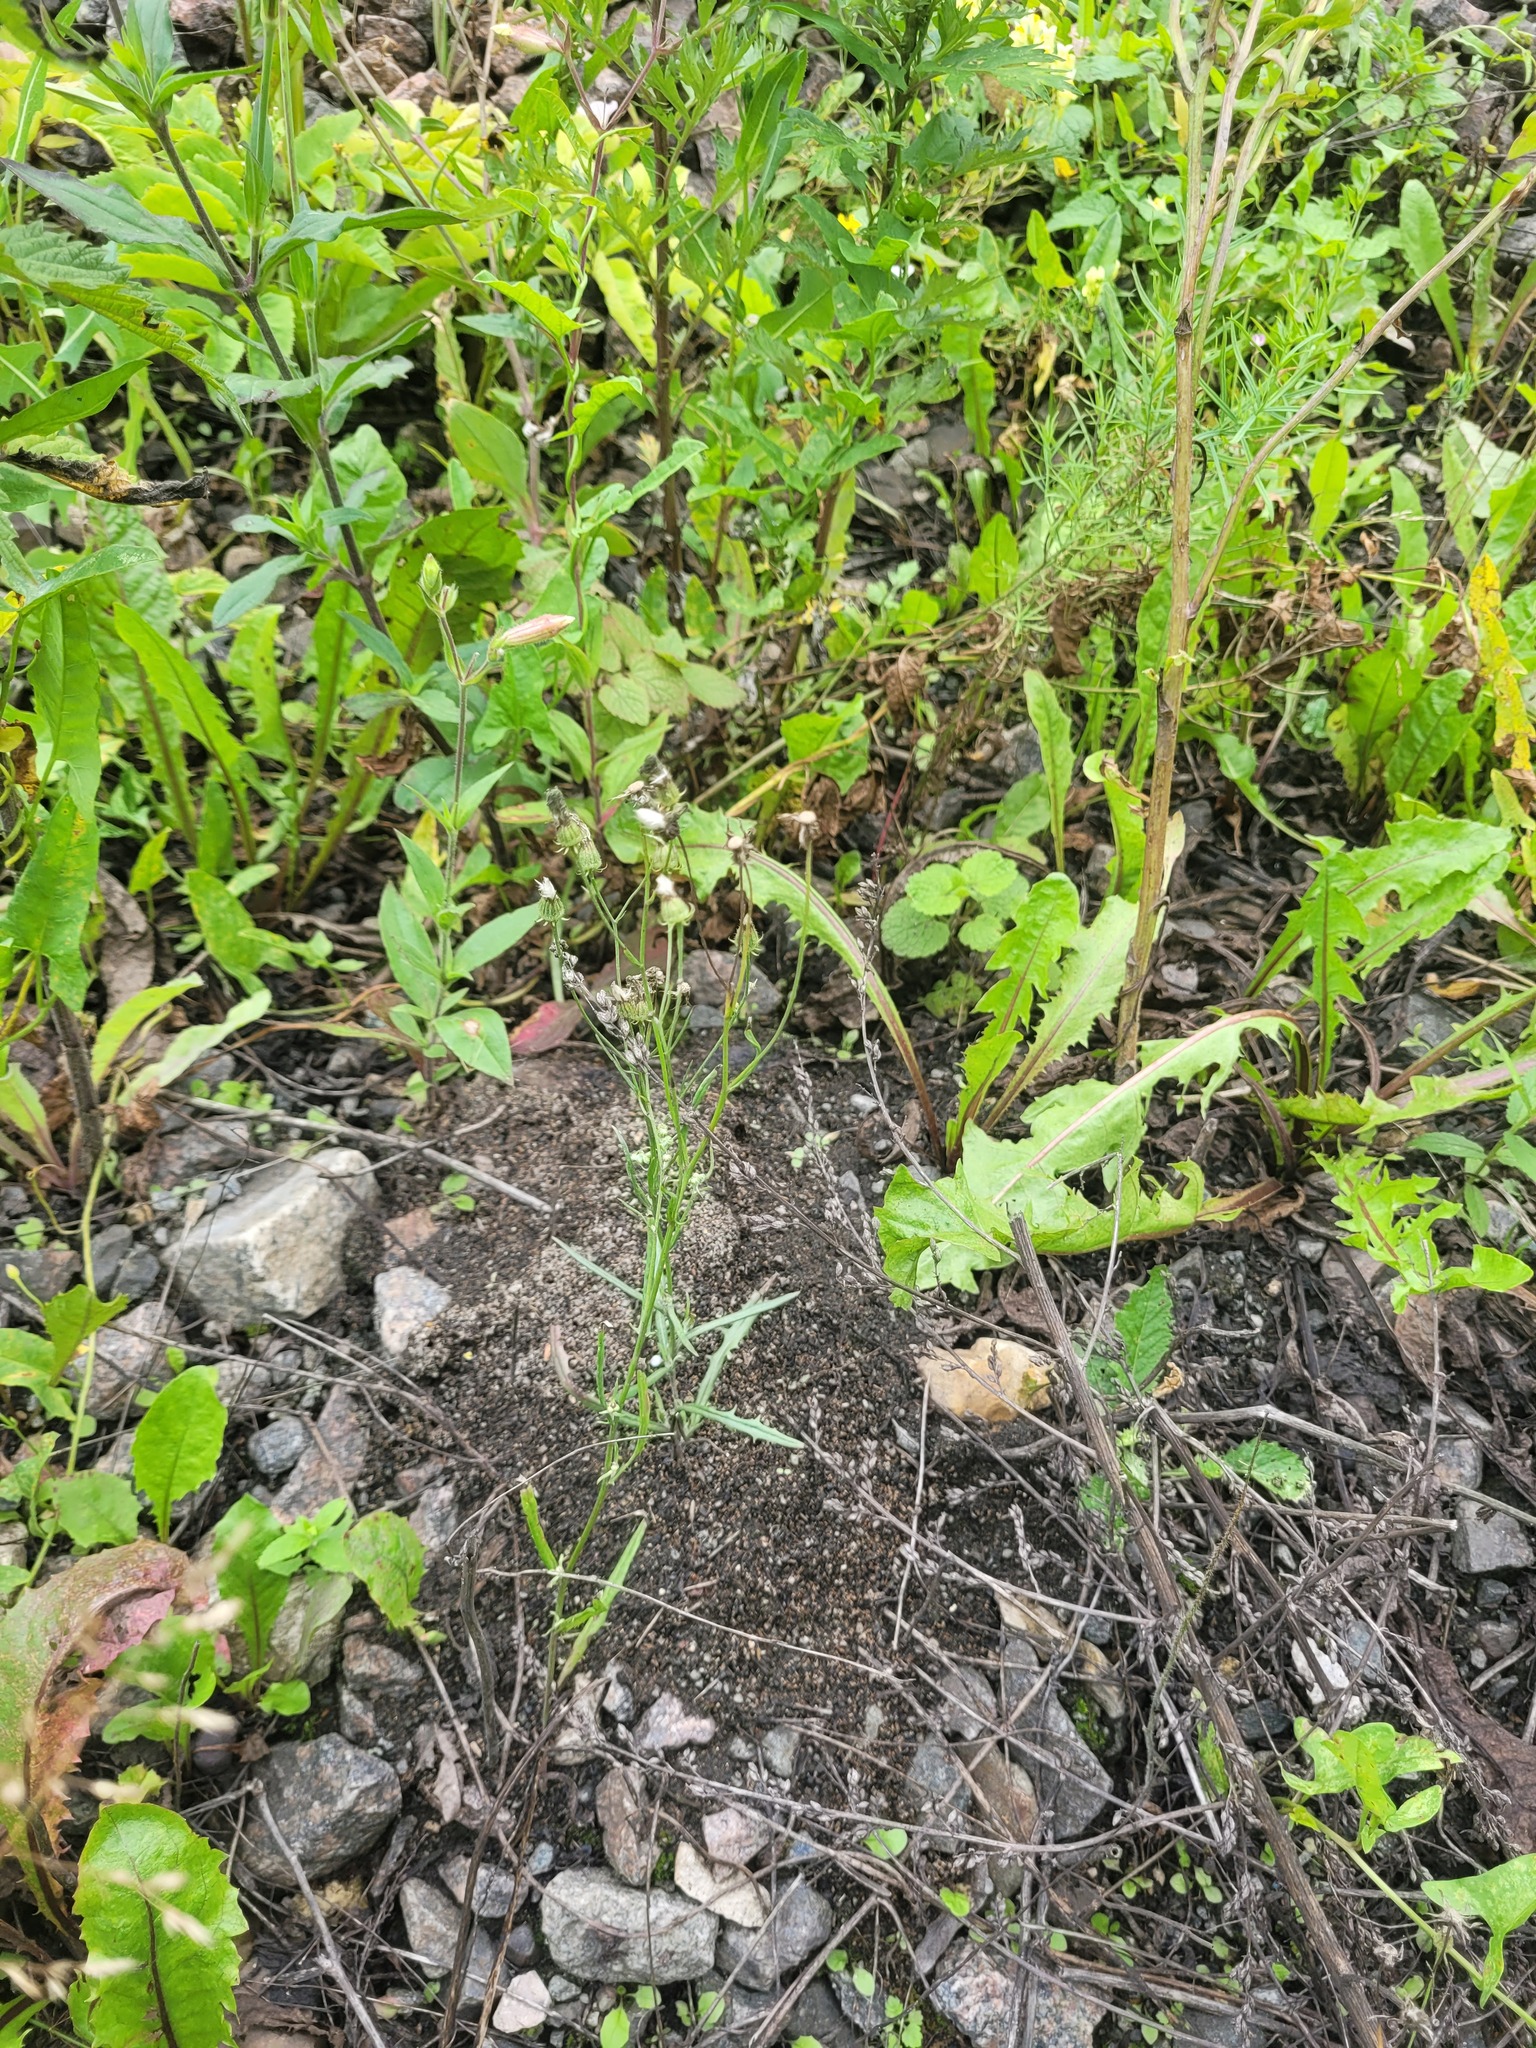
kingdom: Plantae
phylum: Tracheophyta
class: Magnoliopsida
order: Asterales
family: Asteraceae
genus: Crepis
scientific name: Crepis tectorum
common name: Narrow-leaved hawk's-beard
